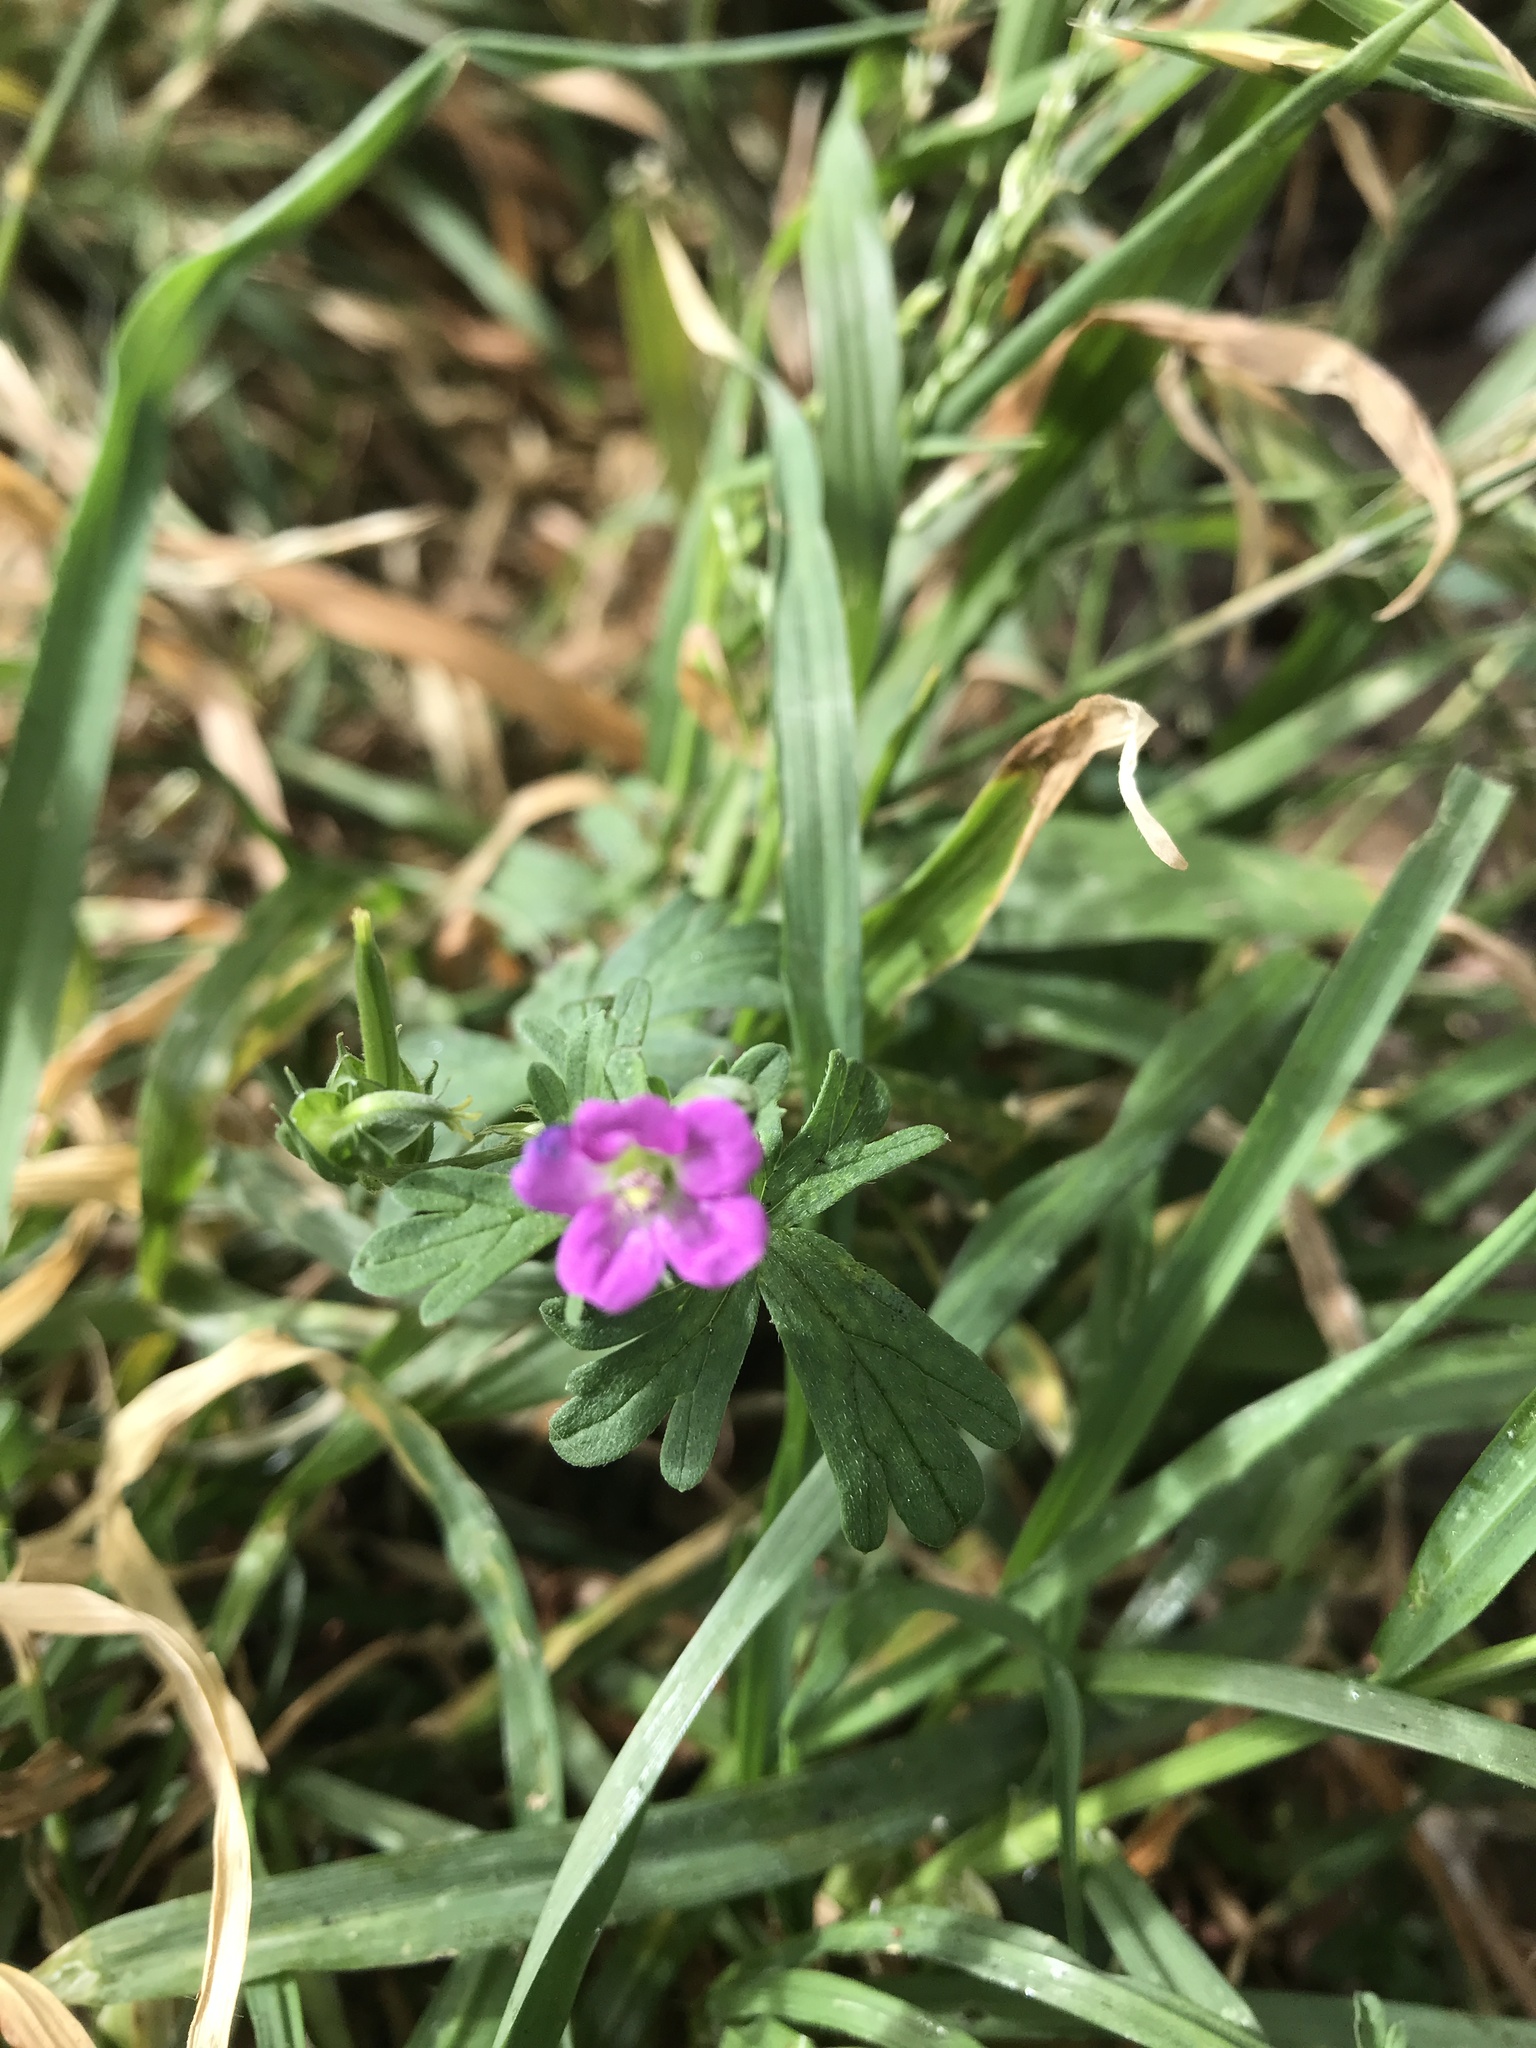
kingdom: Plantae
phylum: Tracheophyta
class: Magnoliopsida
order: Geraniales
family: Geraniaceae
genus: Geranium
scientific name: Geranium core-core
